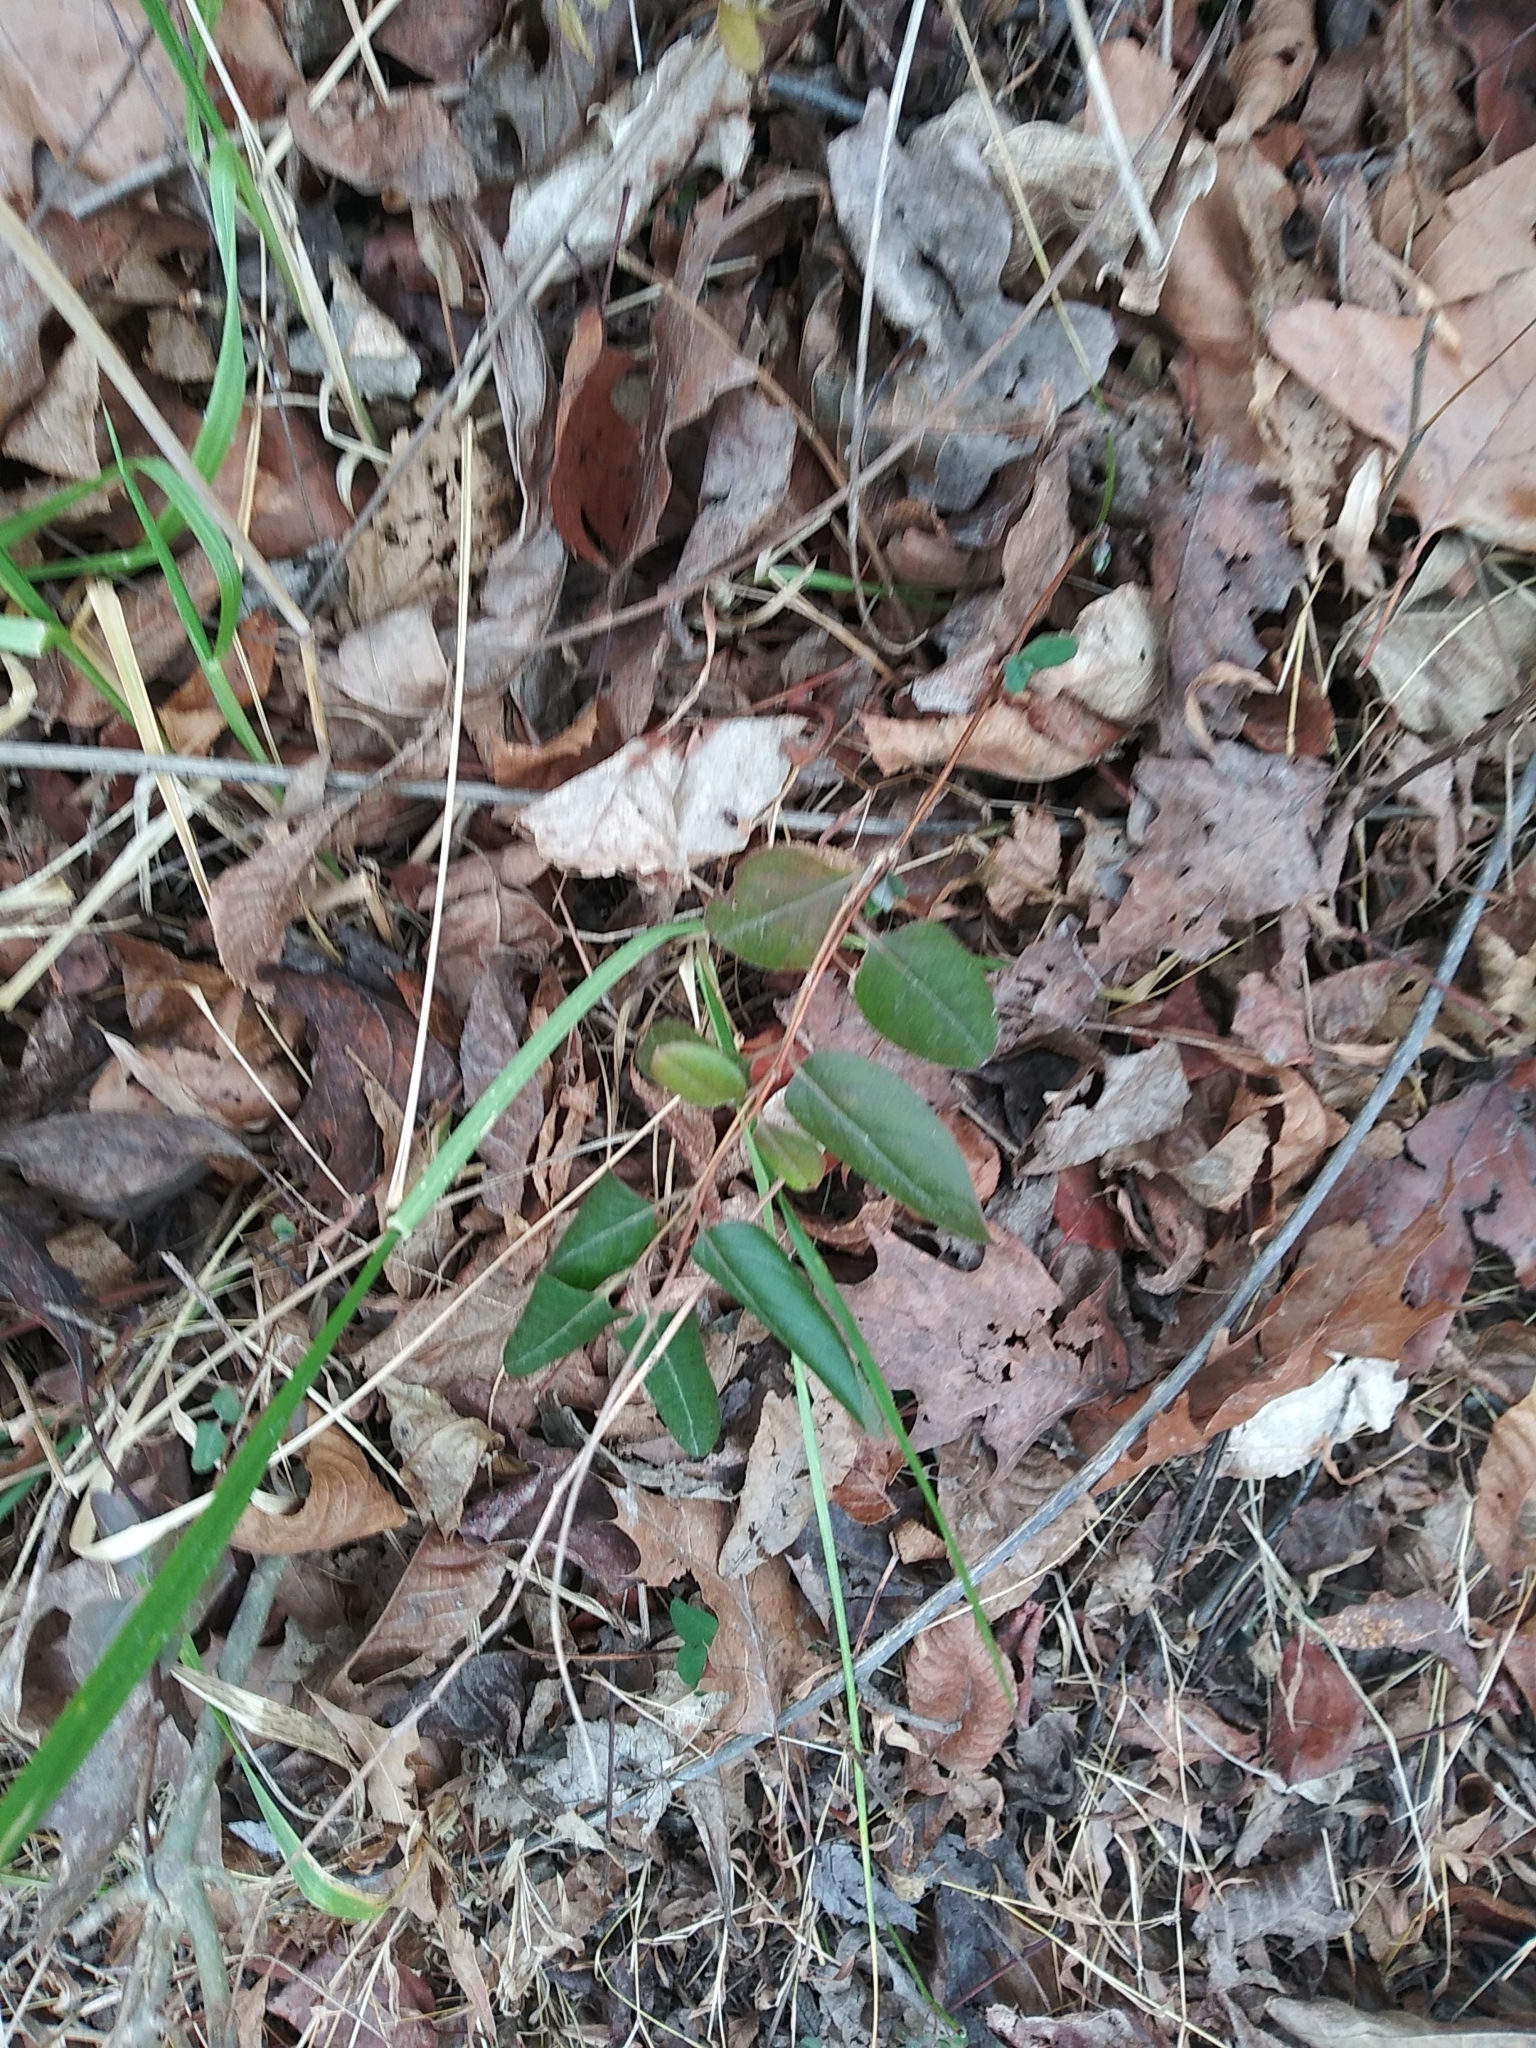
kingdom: Plantae
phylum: Tracheophyta
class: Magnoliopsida
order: Dipsacales
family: Caprifoliaceae
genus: Lonicera
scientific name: Lonicera japonica
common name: Japanese honeysuckle
